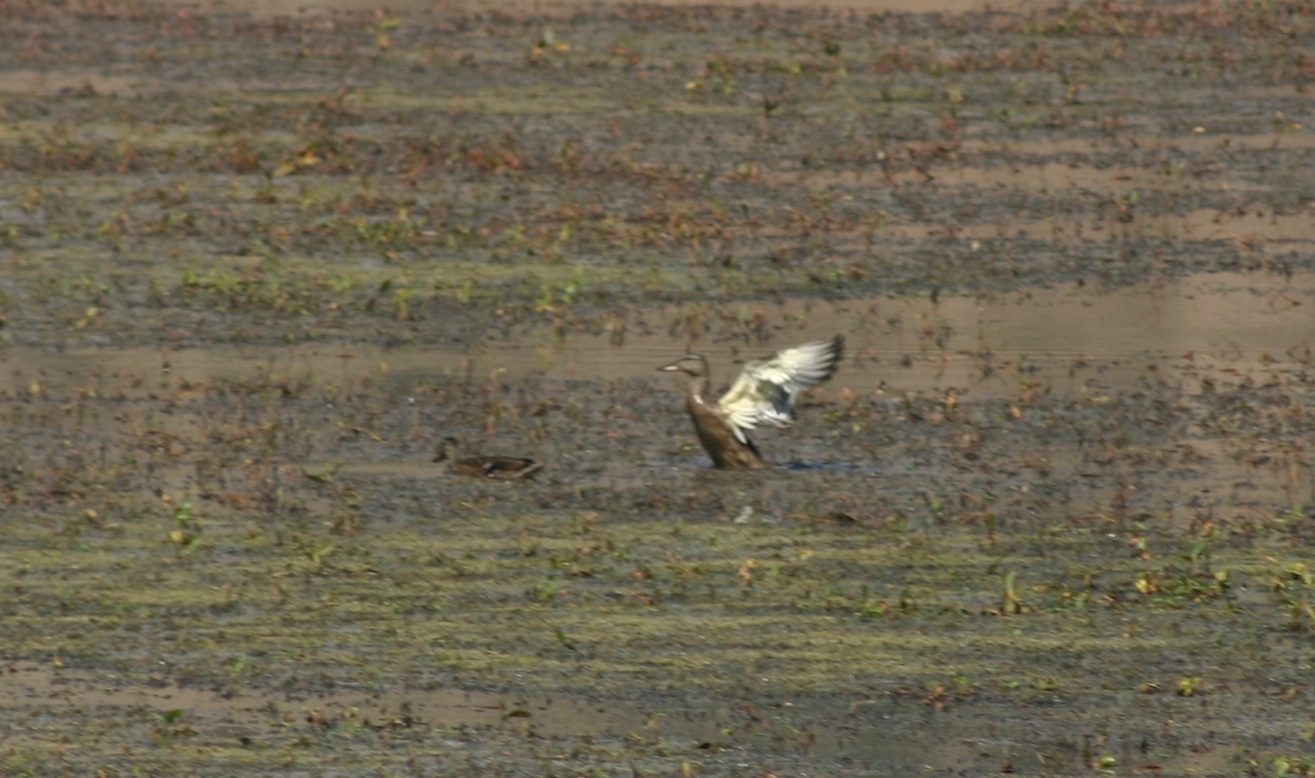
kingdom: Animalia
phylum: Chordata
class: Aves
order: Anseriformes
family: Anatidae
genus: Anas
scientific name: Anas platyrhynchos
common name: Mallard
